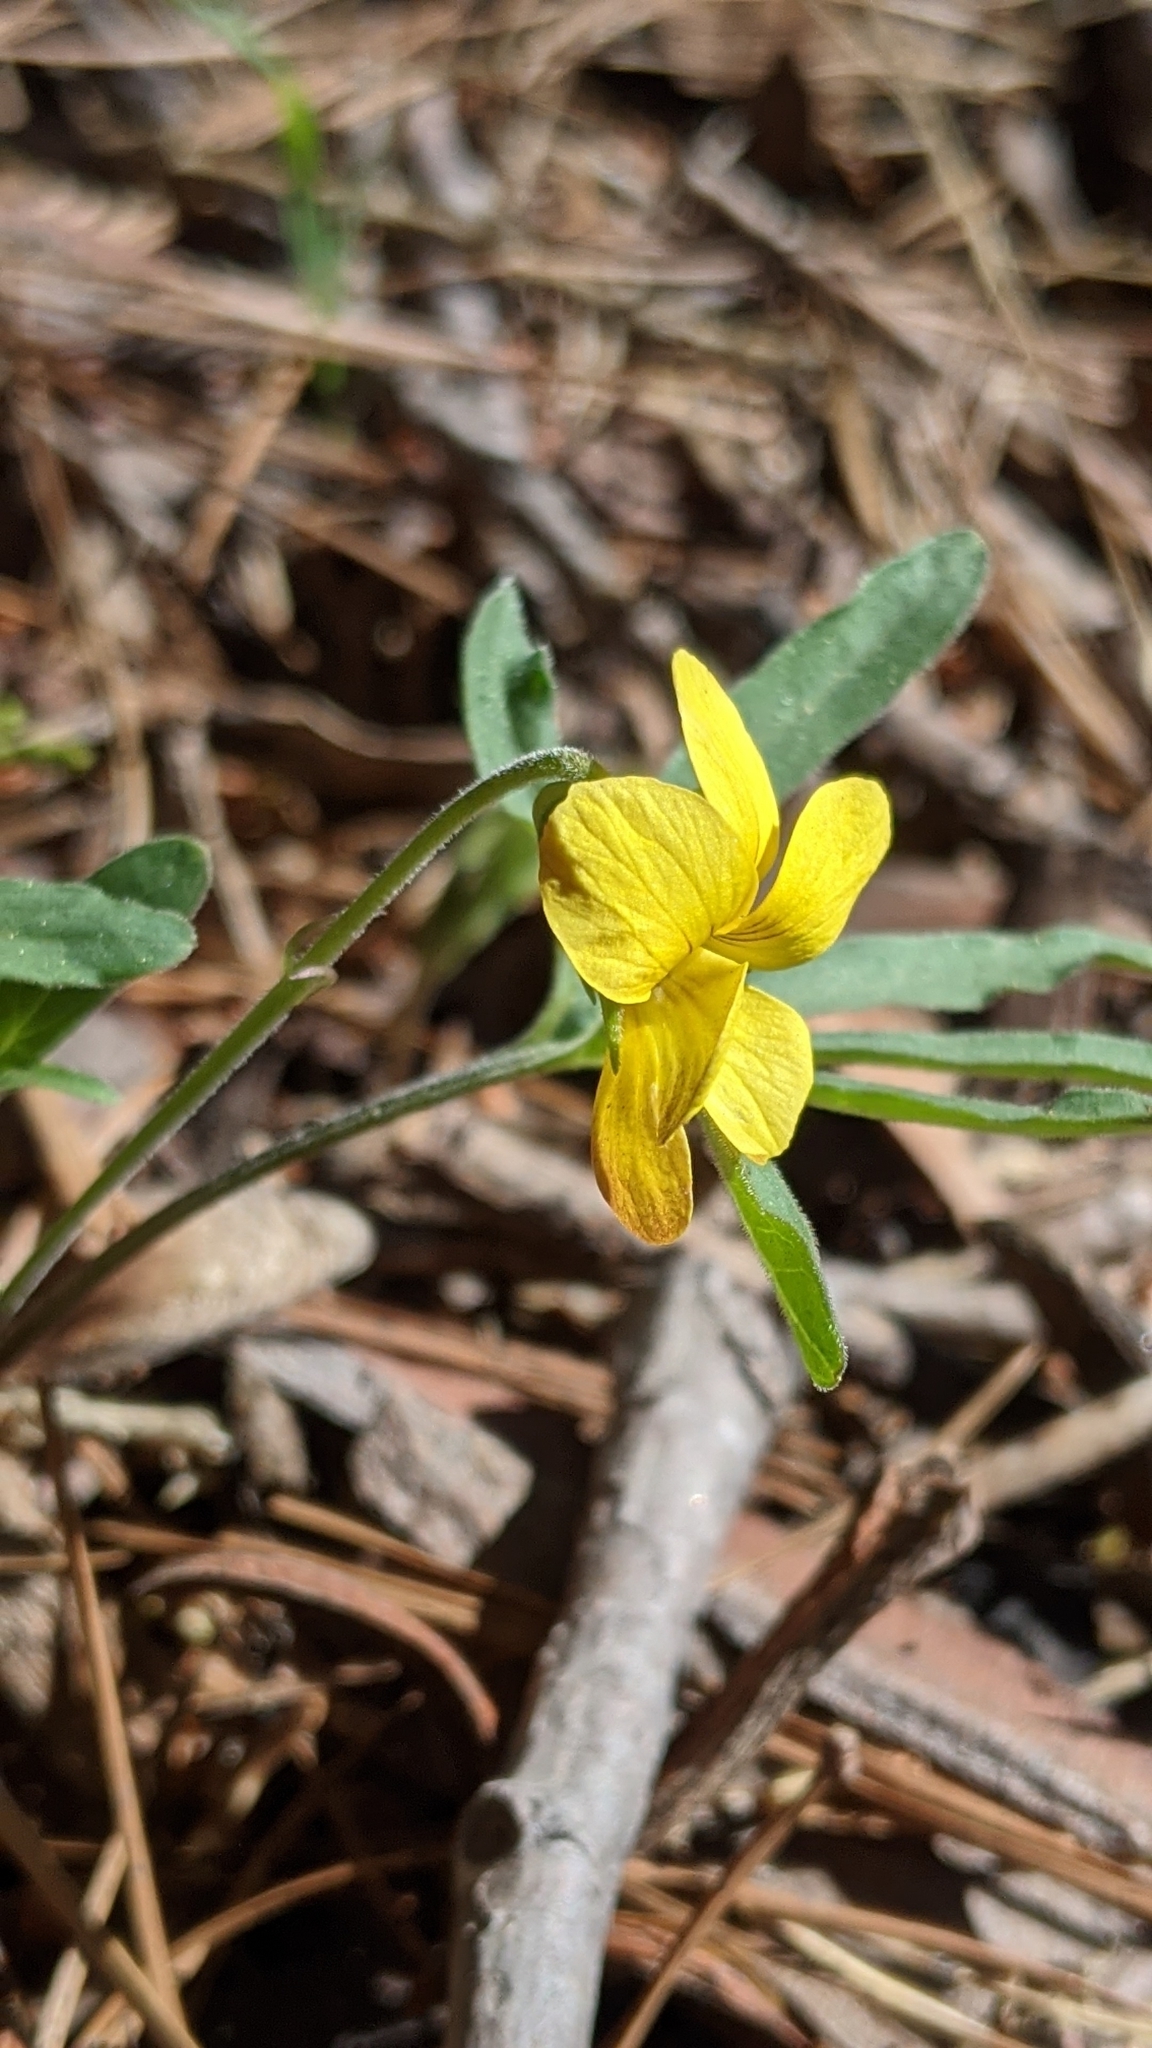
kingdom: Plantae
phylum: Tracheophyta
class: Magnoliopsida
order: Malpighiales
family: Violaceae
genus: Viola
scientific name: Viola lobata
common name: Pine violet
